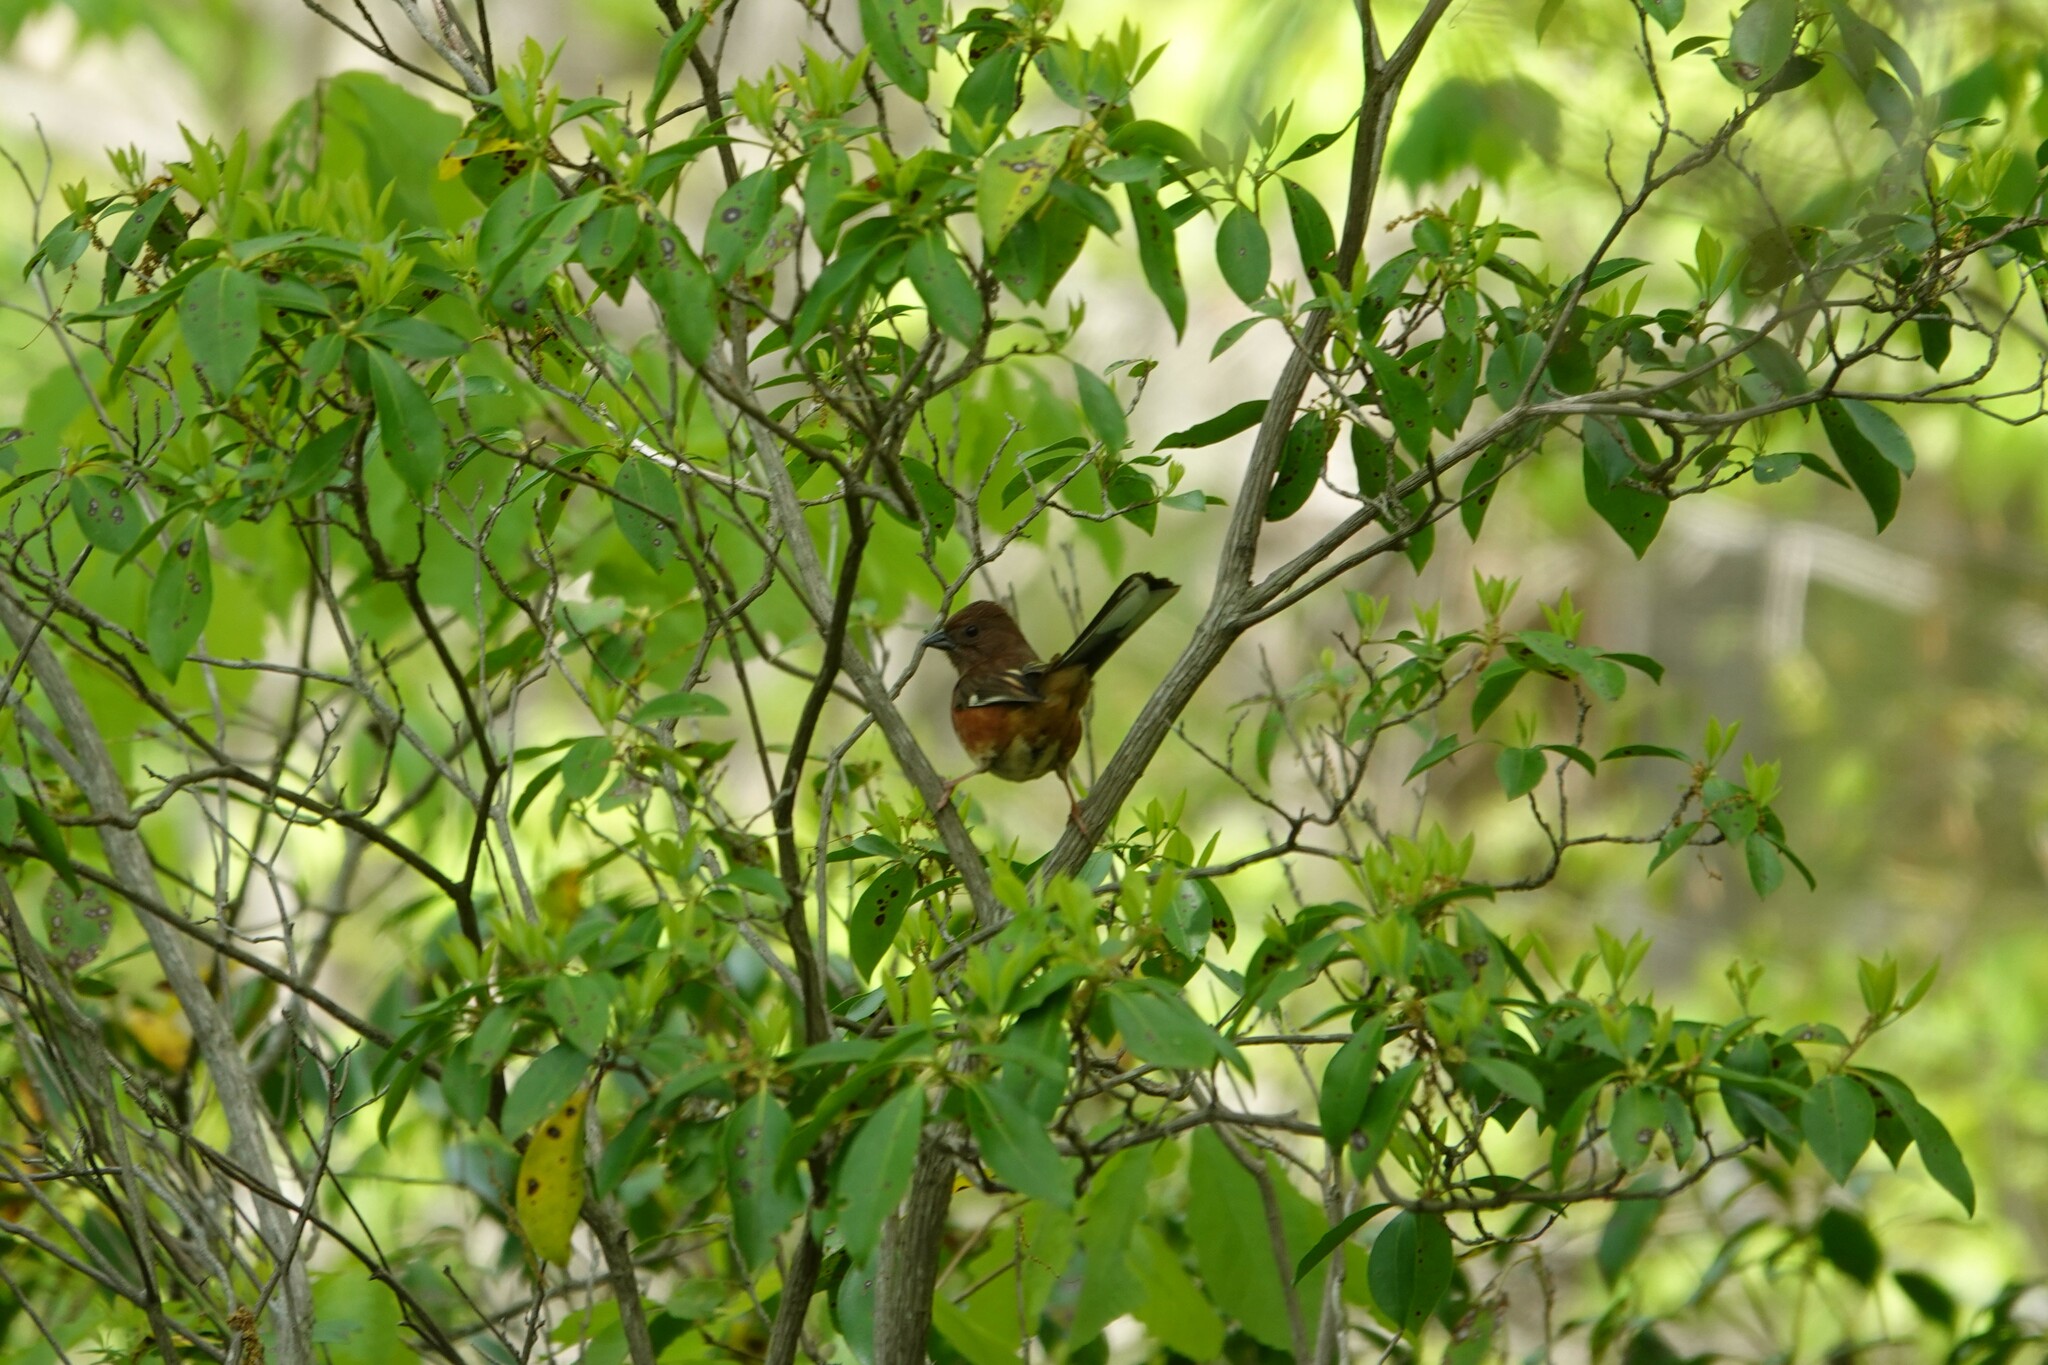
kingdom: Animalia
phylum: Chordata
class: Aves
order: Passeriformes
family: Passerellidae
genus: Pipilo
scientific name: Pipilo erythrophthalmus
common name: Eastern towhee
